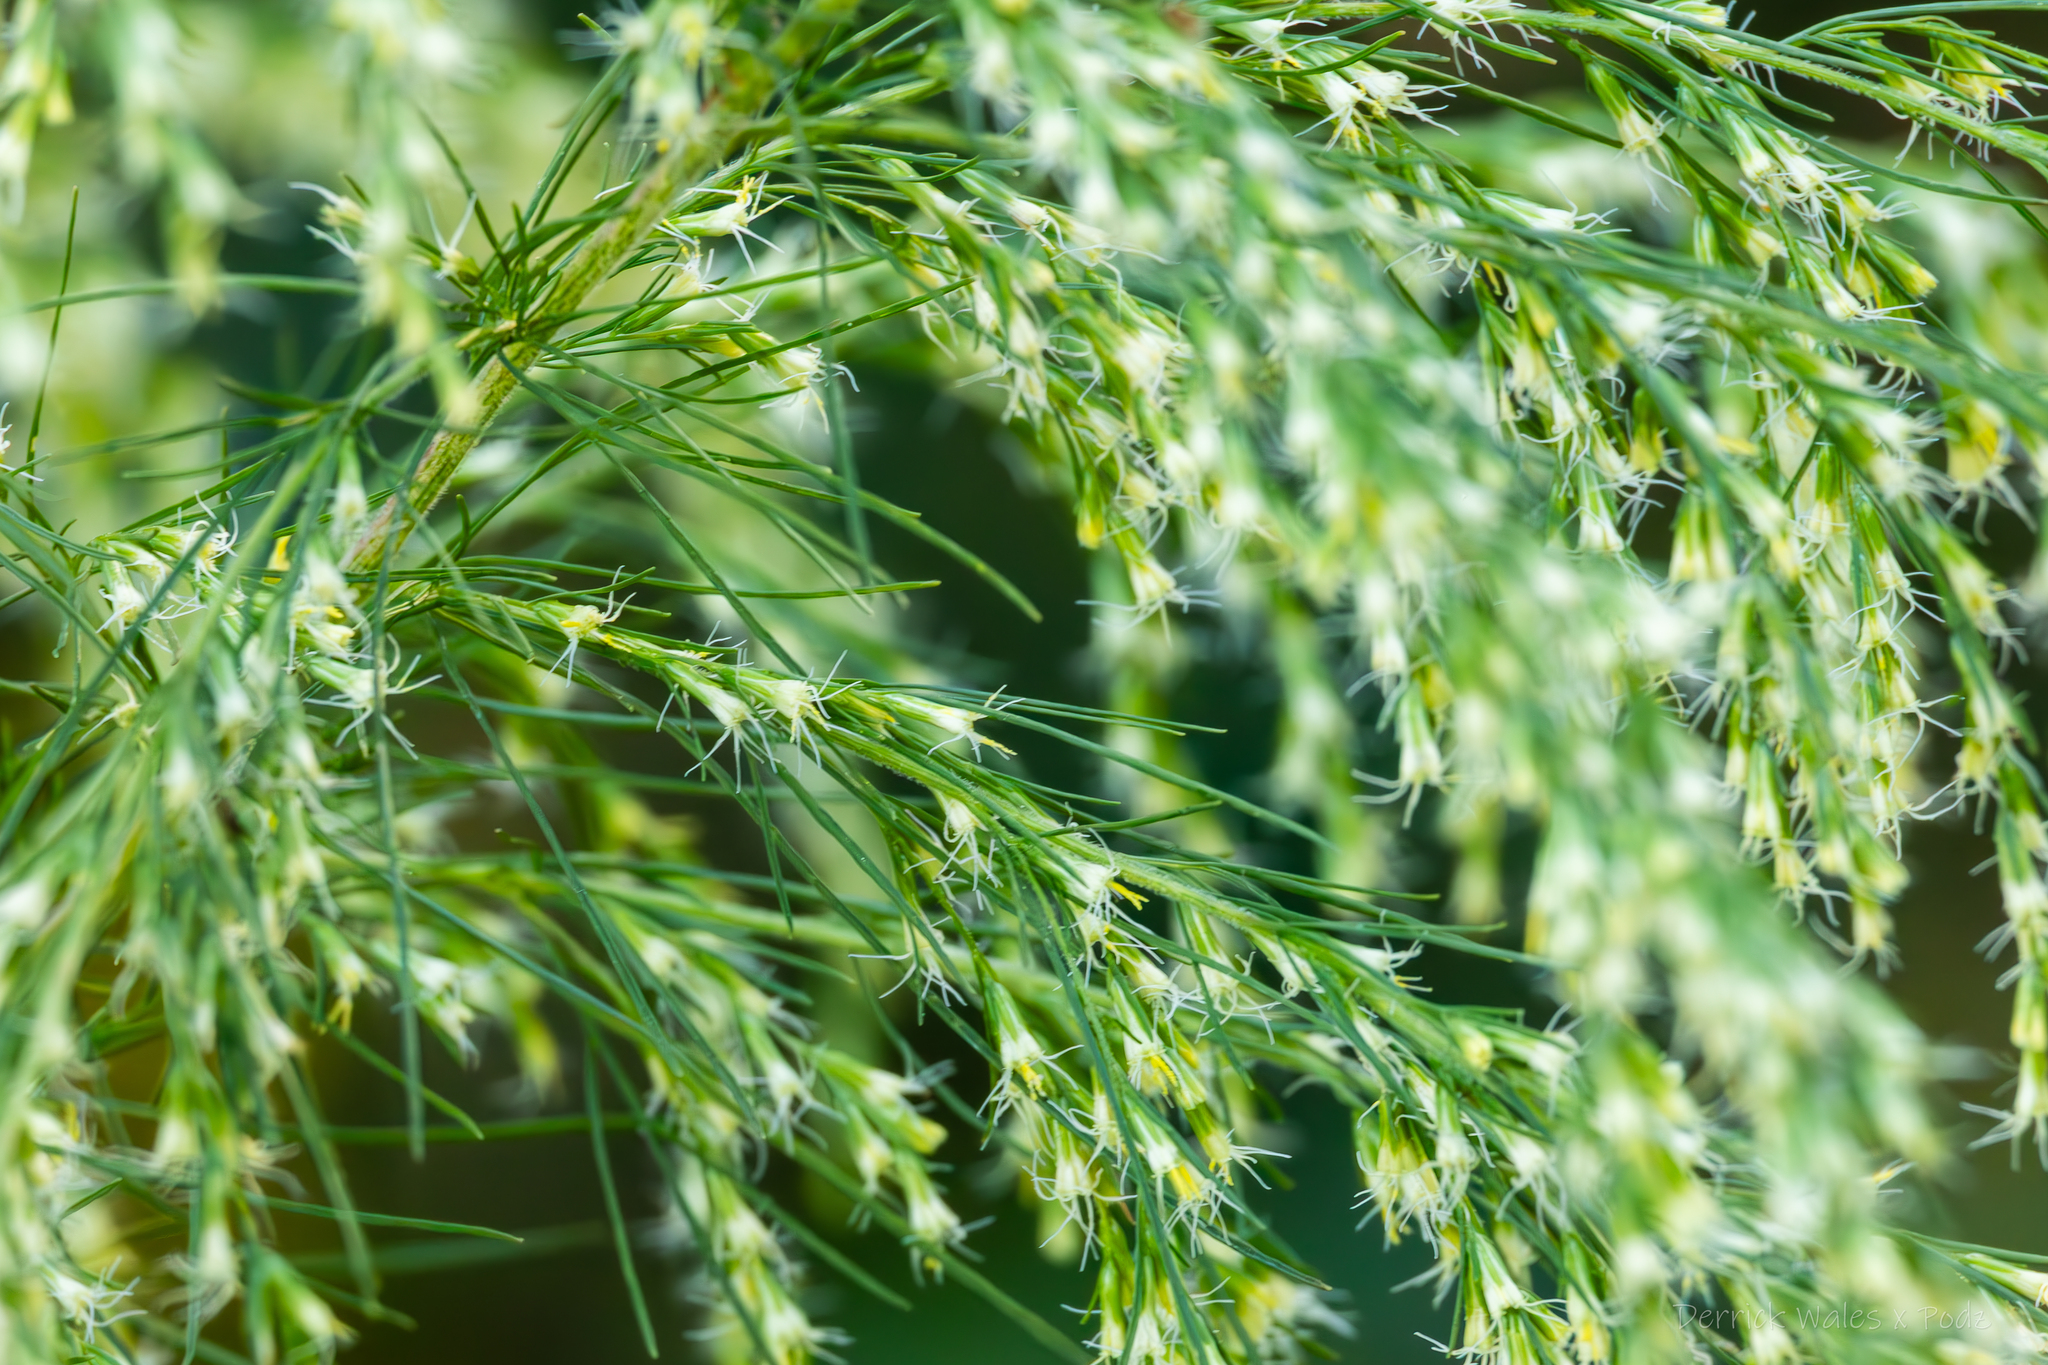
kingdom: Plantae
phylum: Tracheophyta
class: Magnoliopsida
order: Asterales
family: Asteraceae
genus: Eupatorium
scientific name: Eupatorium capillifolium
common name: Dog-fennel
